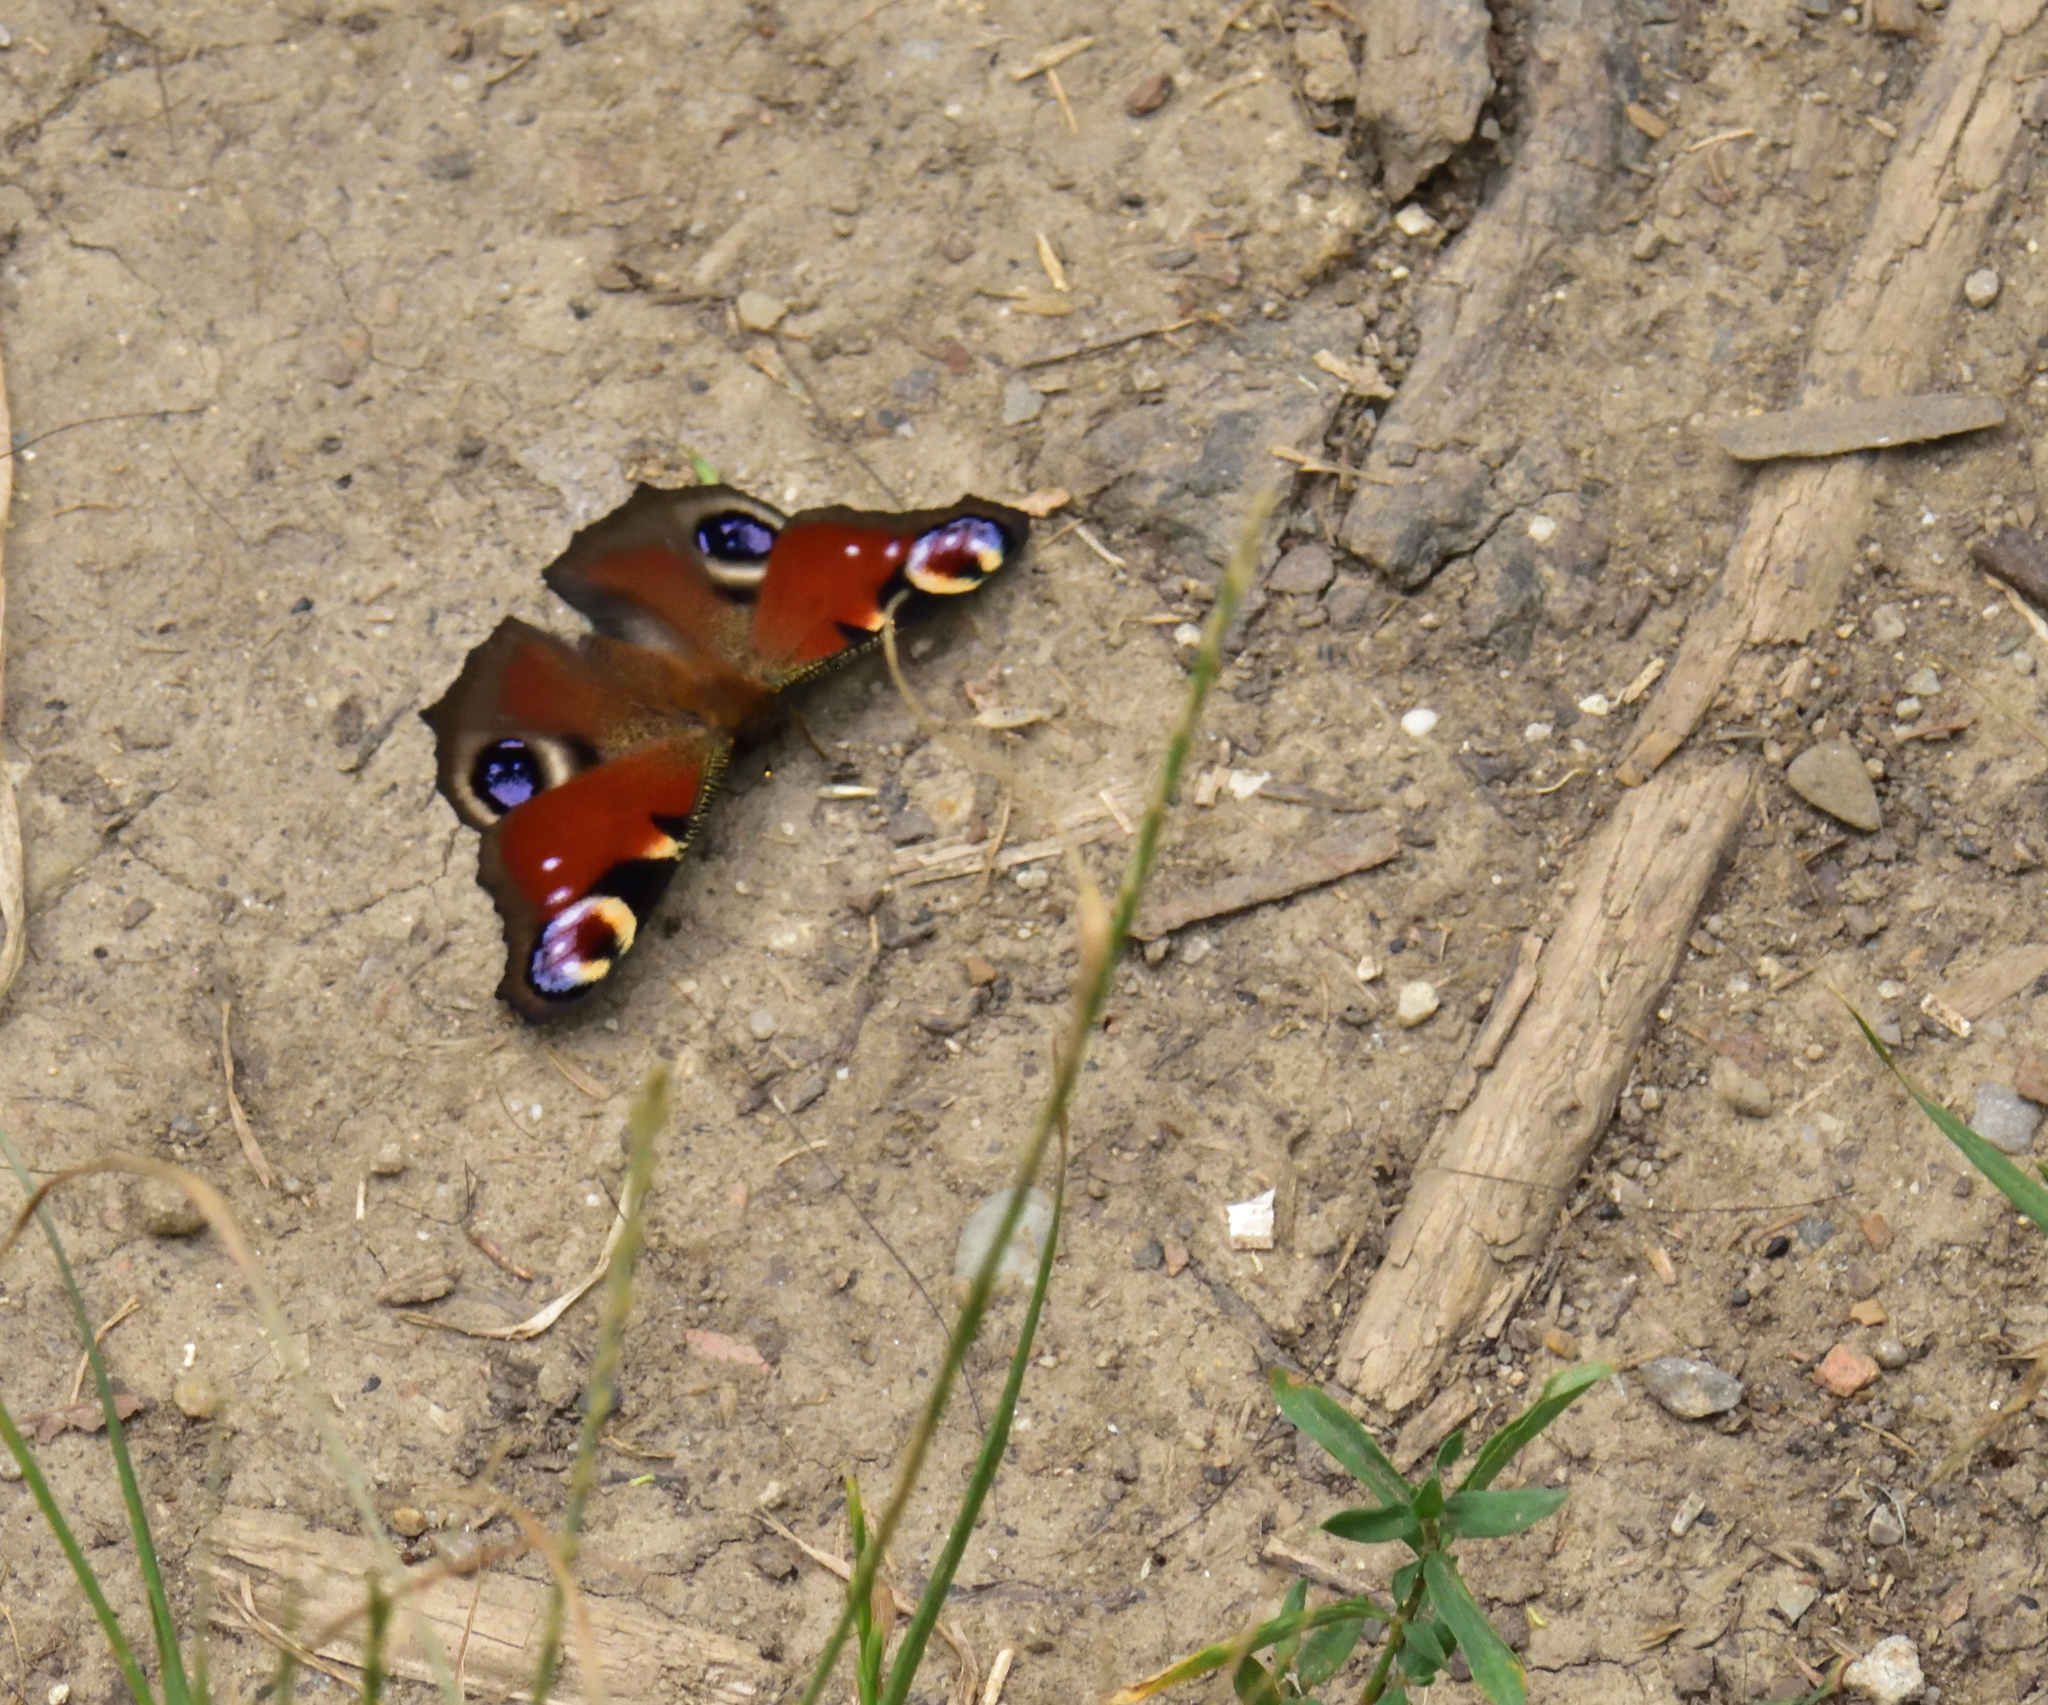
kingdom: Animalia
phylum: Arthropoda
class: Insecta
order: Lepidoptera
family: Nymphalidae
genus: Aglais
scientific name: Aglais io
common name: Peacock
